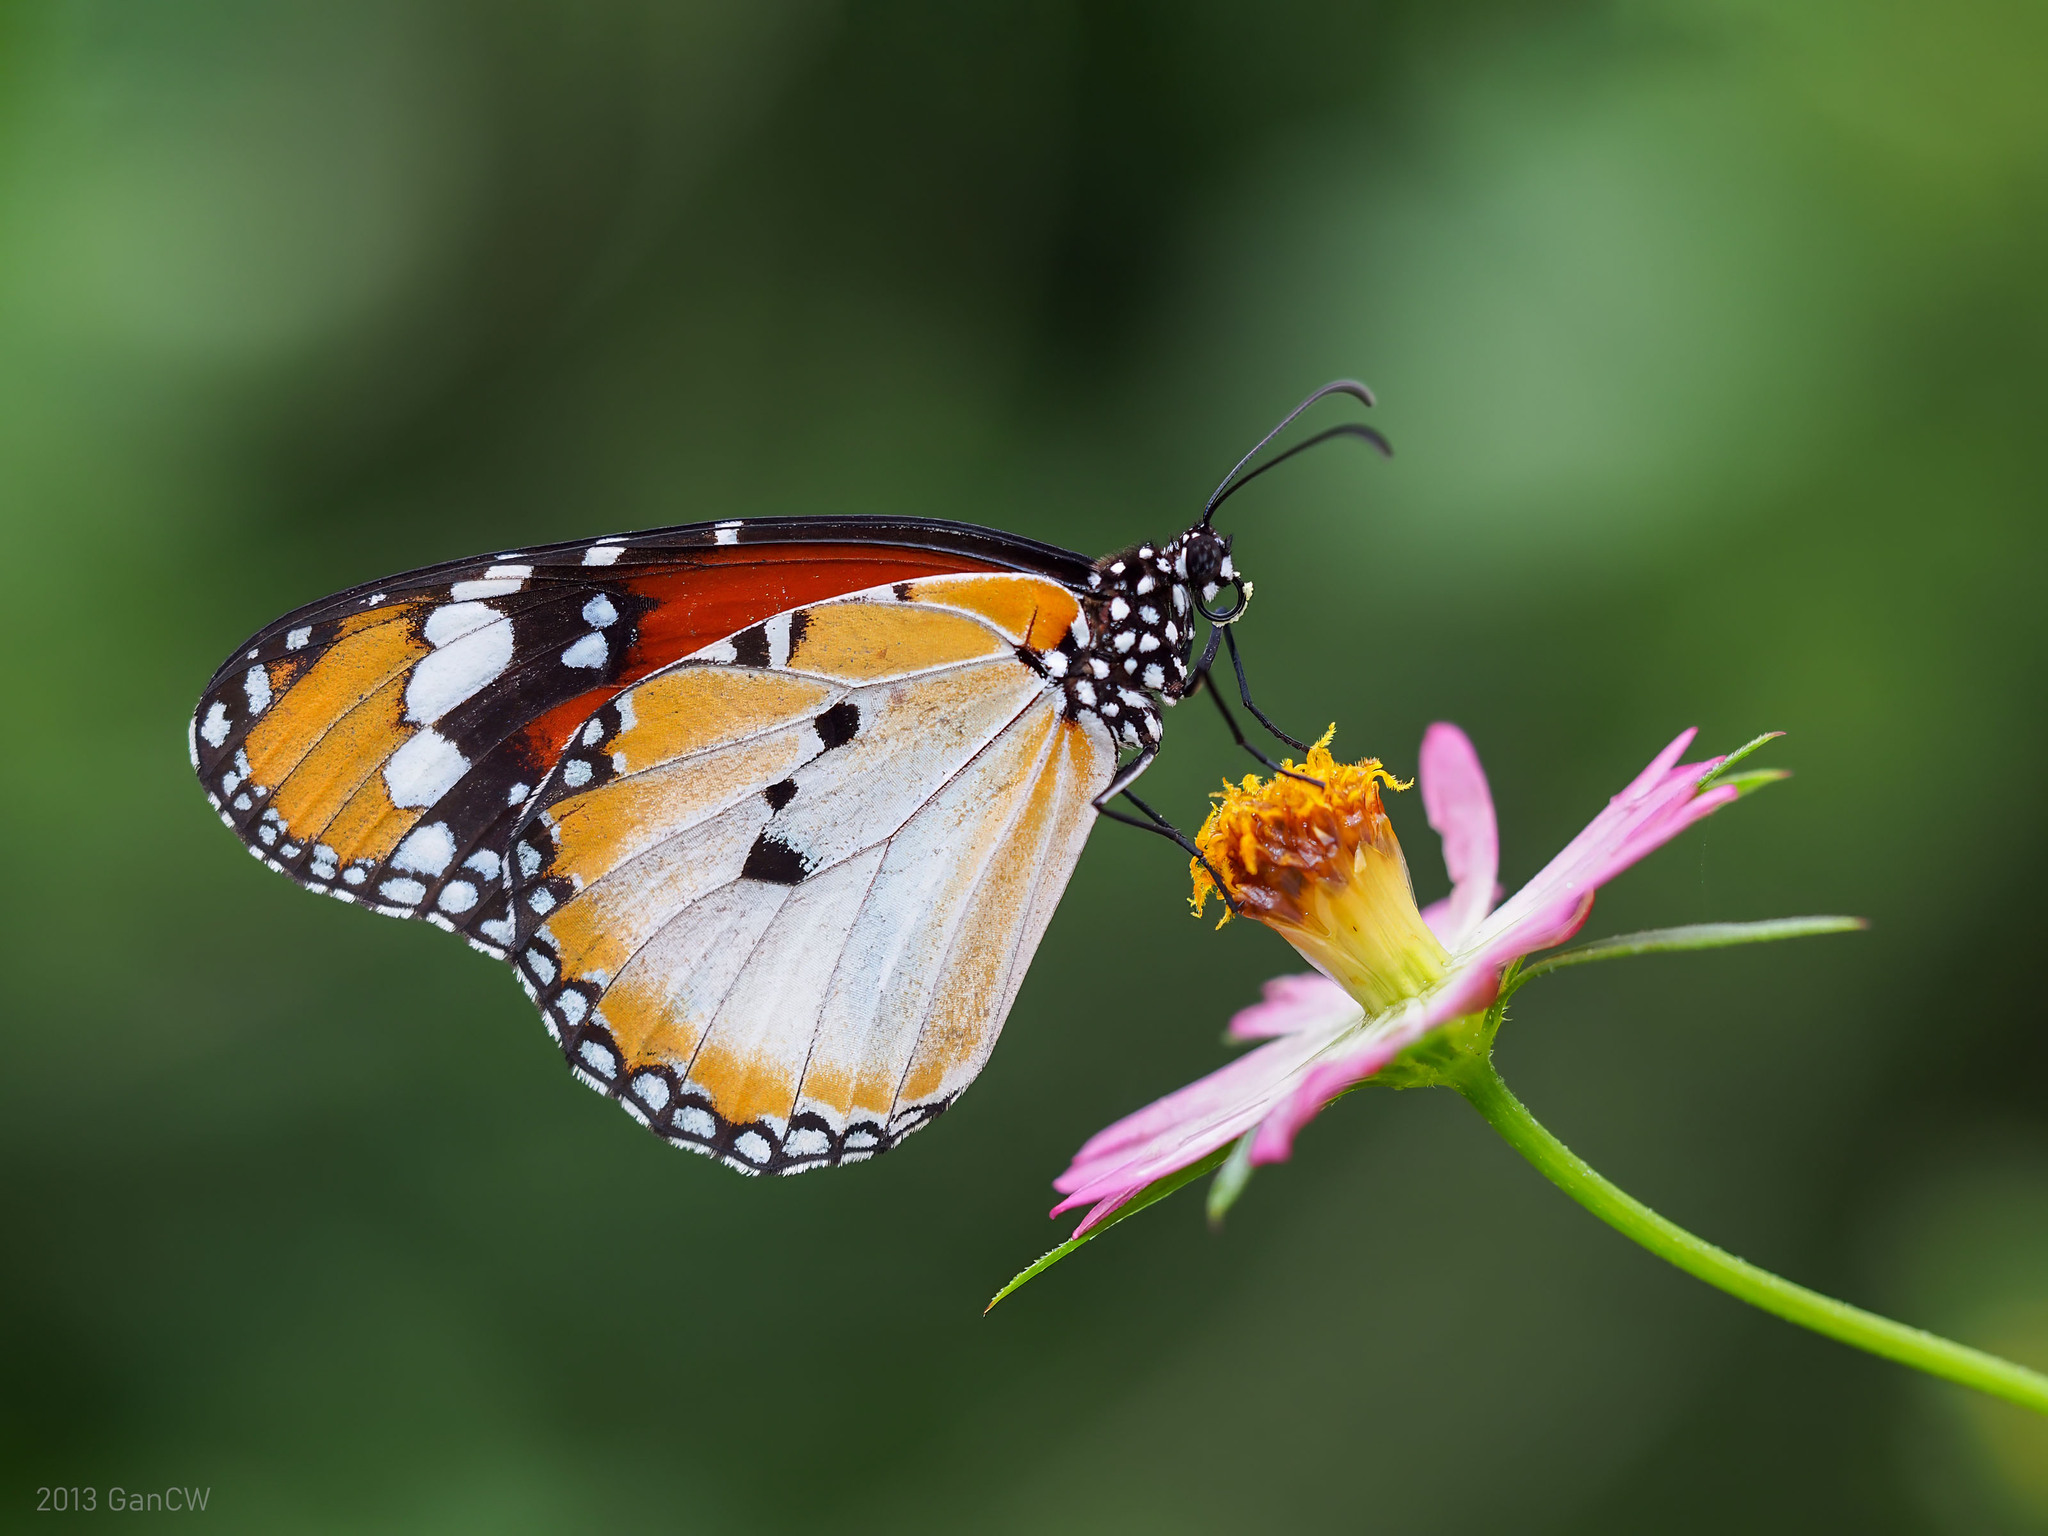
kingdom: Animalia
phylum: Arthropoda
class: Insecta
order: Lepidoptera
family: Nymphalidae
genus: Danaus
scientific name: Danaus chrysippus
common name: Plain tiger
